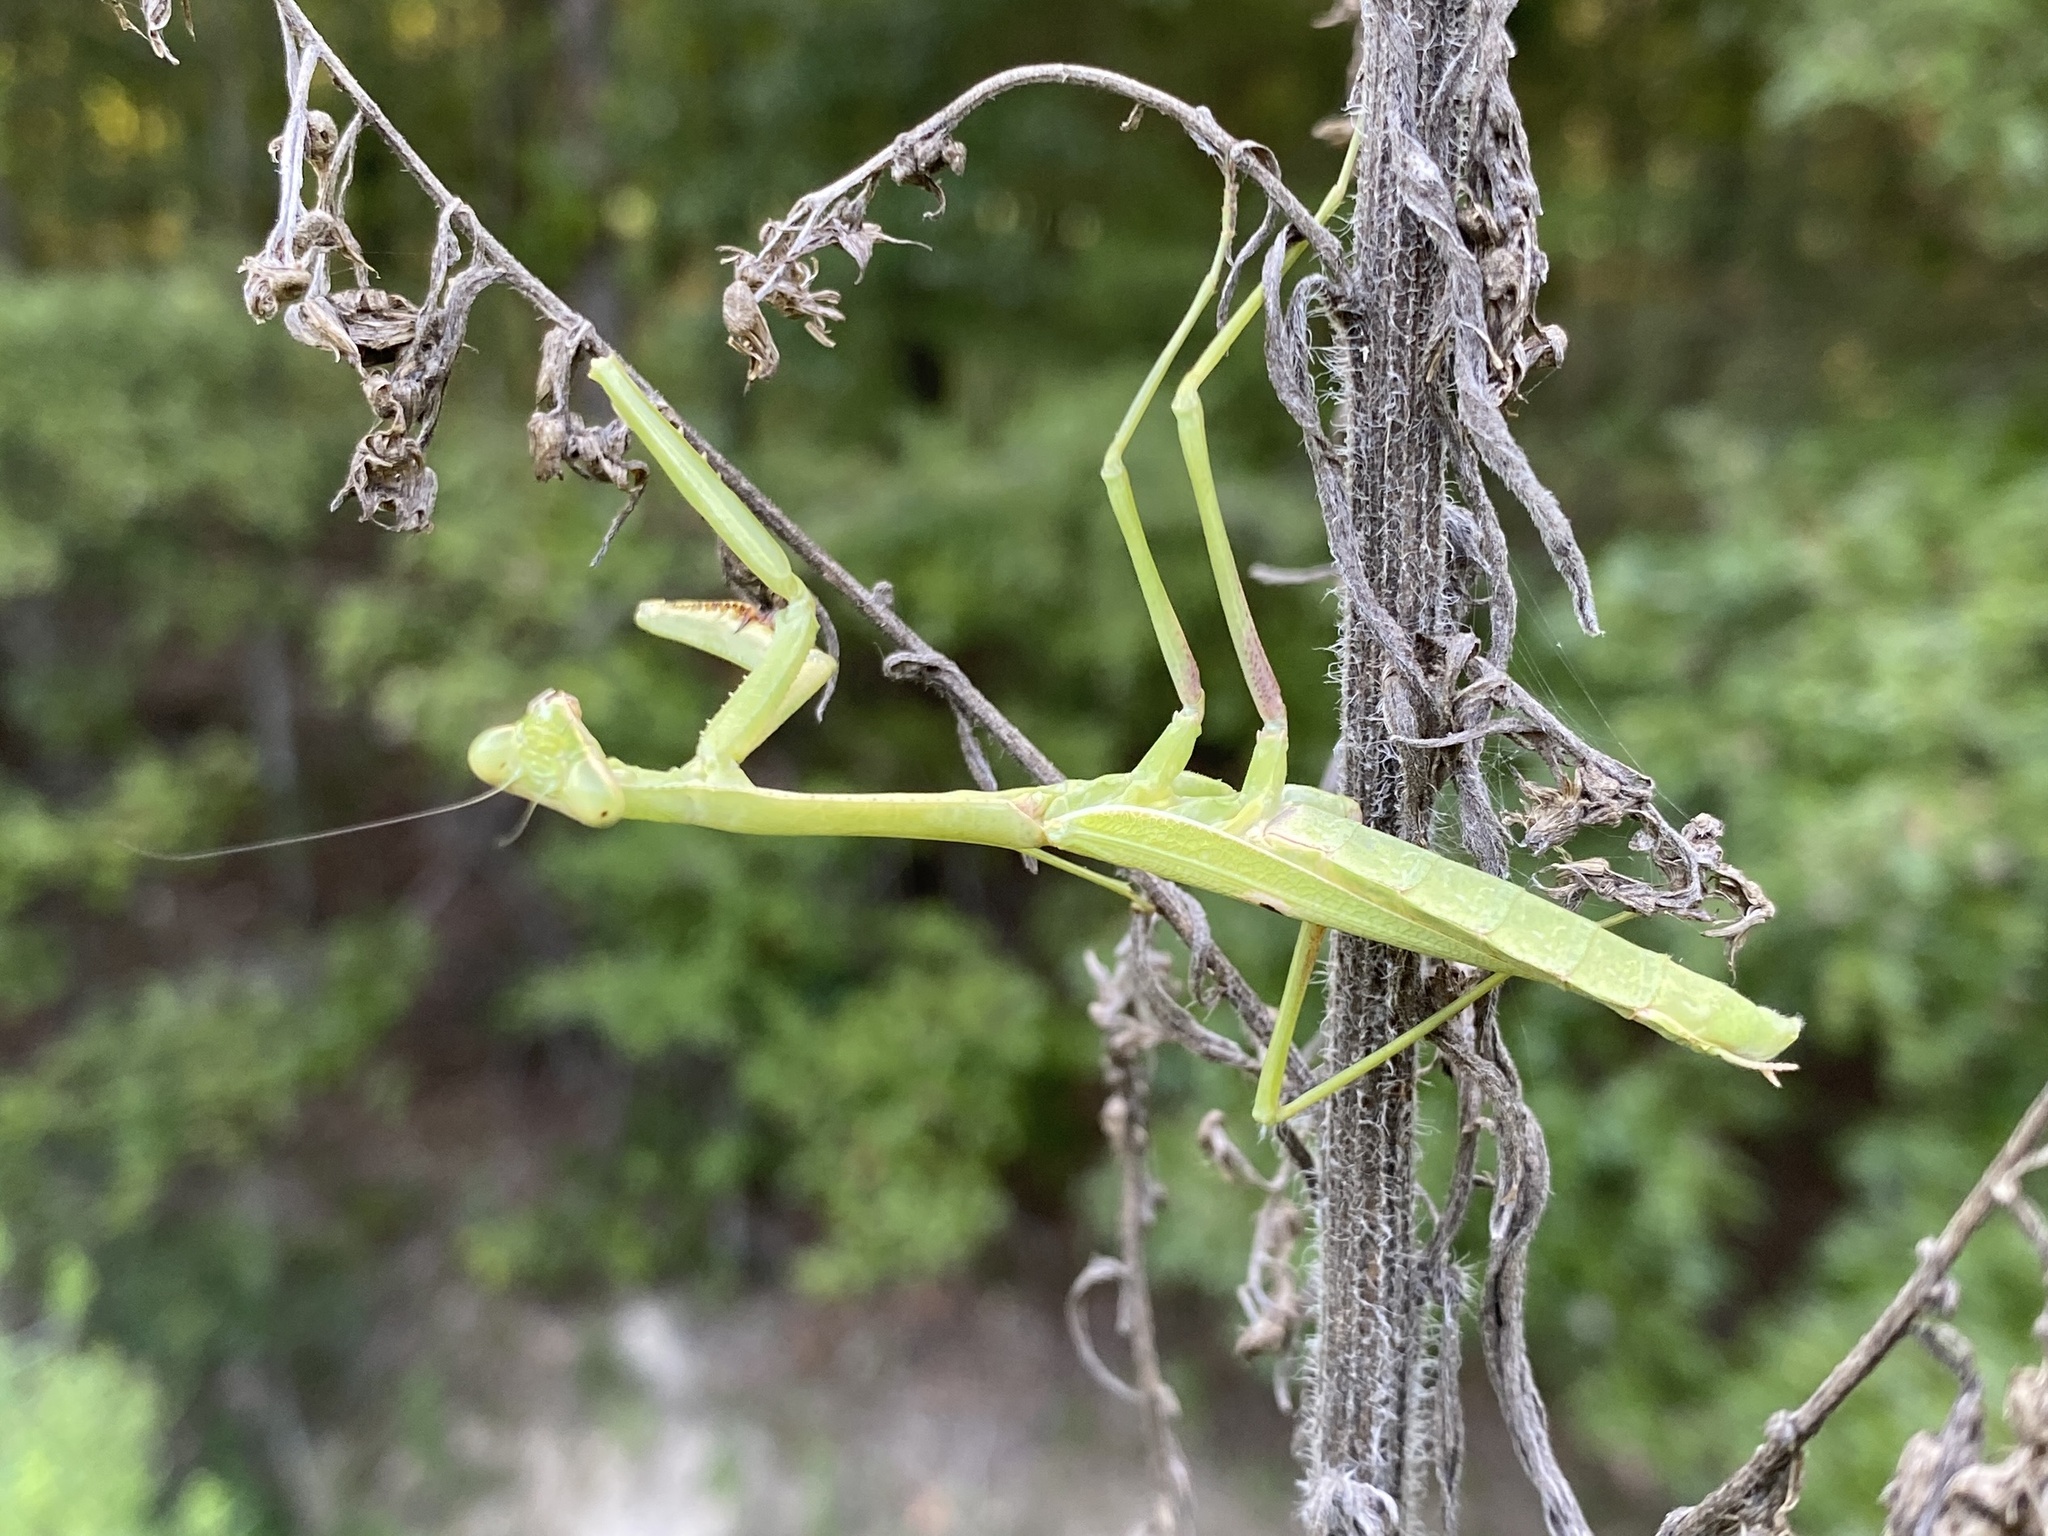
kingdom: Animalia
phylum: Arthropoda
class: Insecta
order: Mantodea
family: Mantidae
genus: Stagmomantis
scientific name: Stagmomantis carolina
